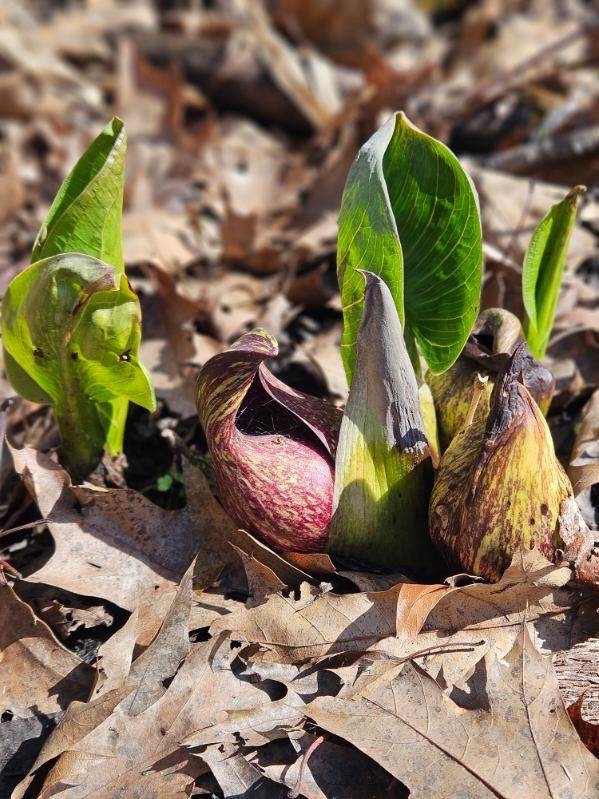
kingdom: Plantae
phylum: Tracheophyta
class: Liliopsida
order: Alismatales
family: Araceae
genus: Symplocarpus
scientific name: Symplocarpus foetidus
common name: Eastern skunk cabbage
